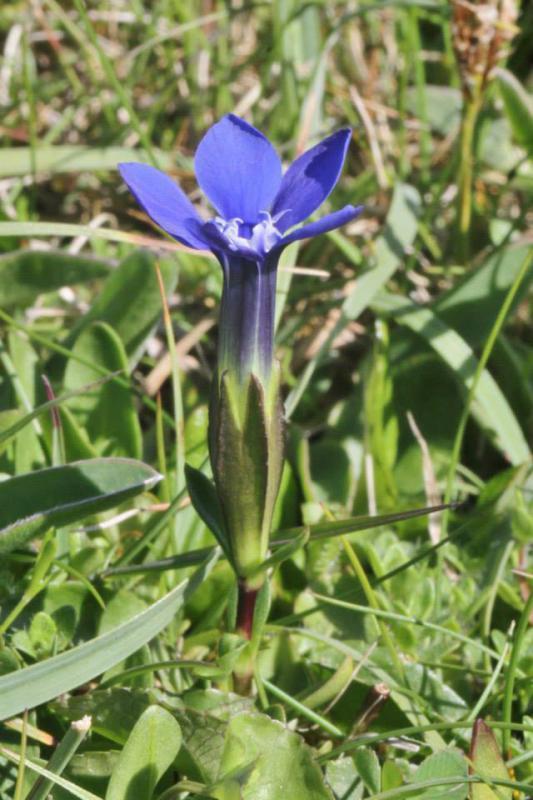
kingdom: Plantae
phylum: Tracheophyta
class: Magnoliopsida
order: Gentianales
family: Gentianaceae
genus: Gentiana
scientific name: Gentiana verna
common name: Spring gentian
